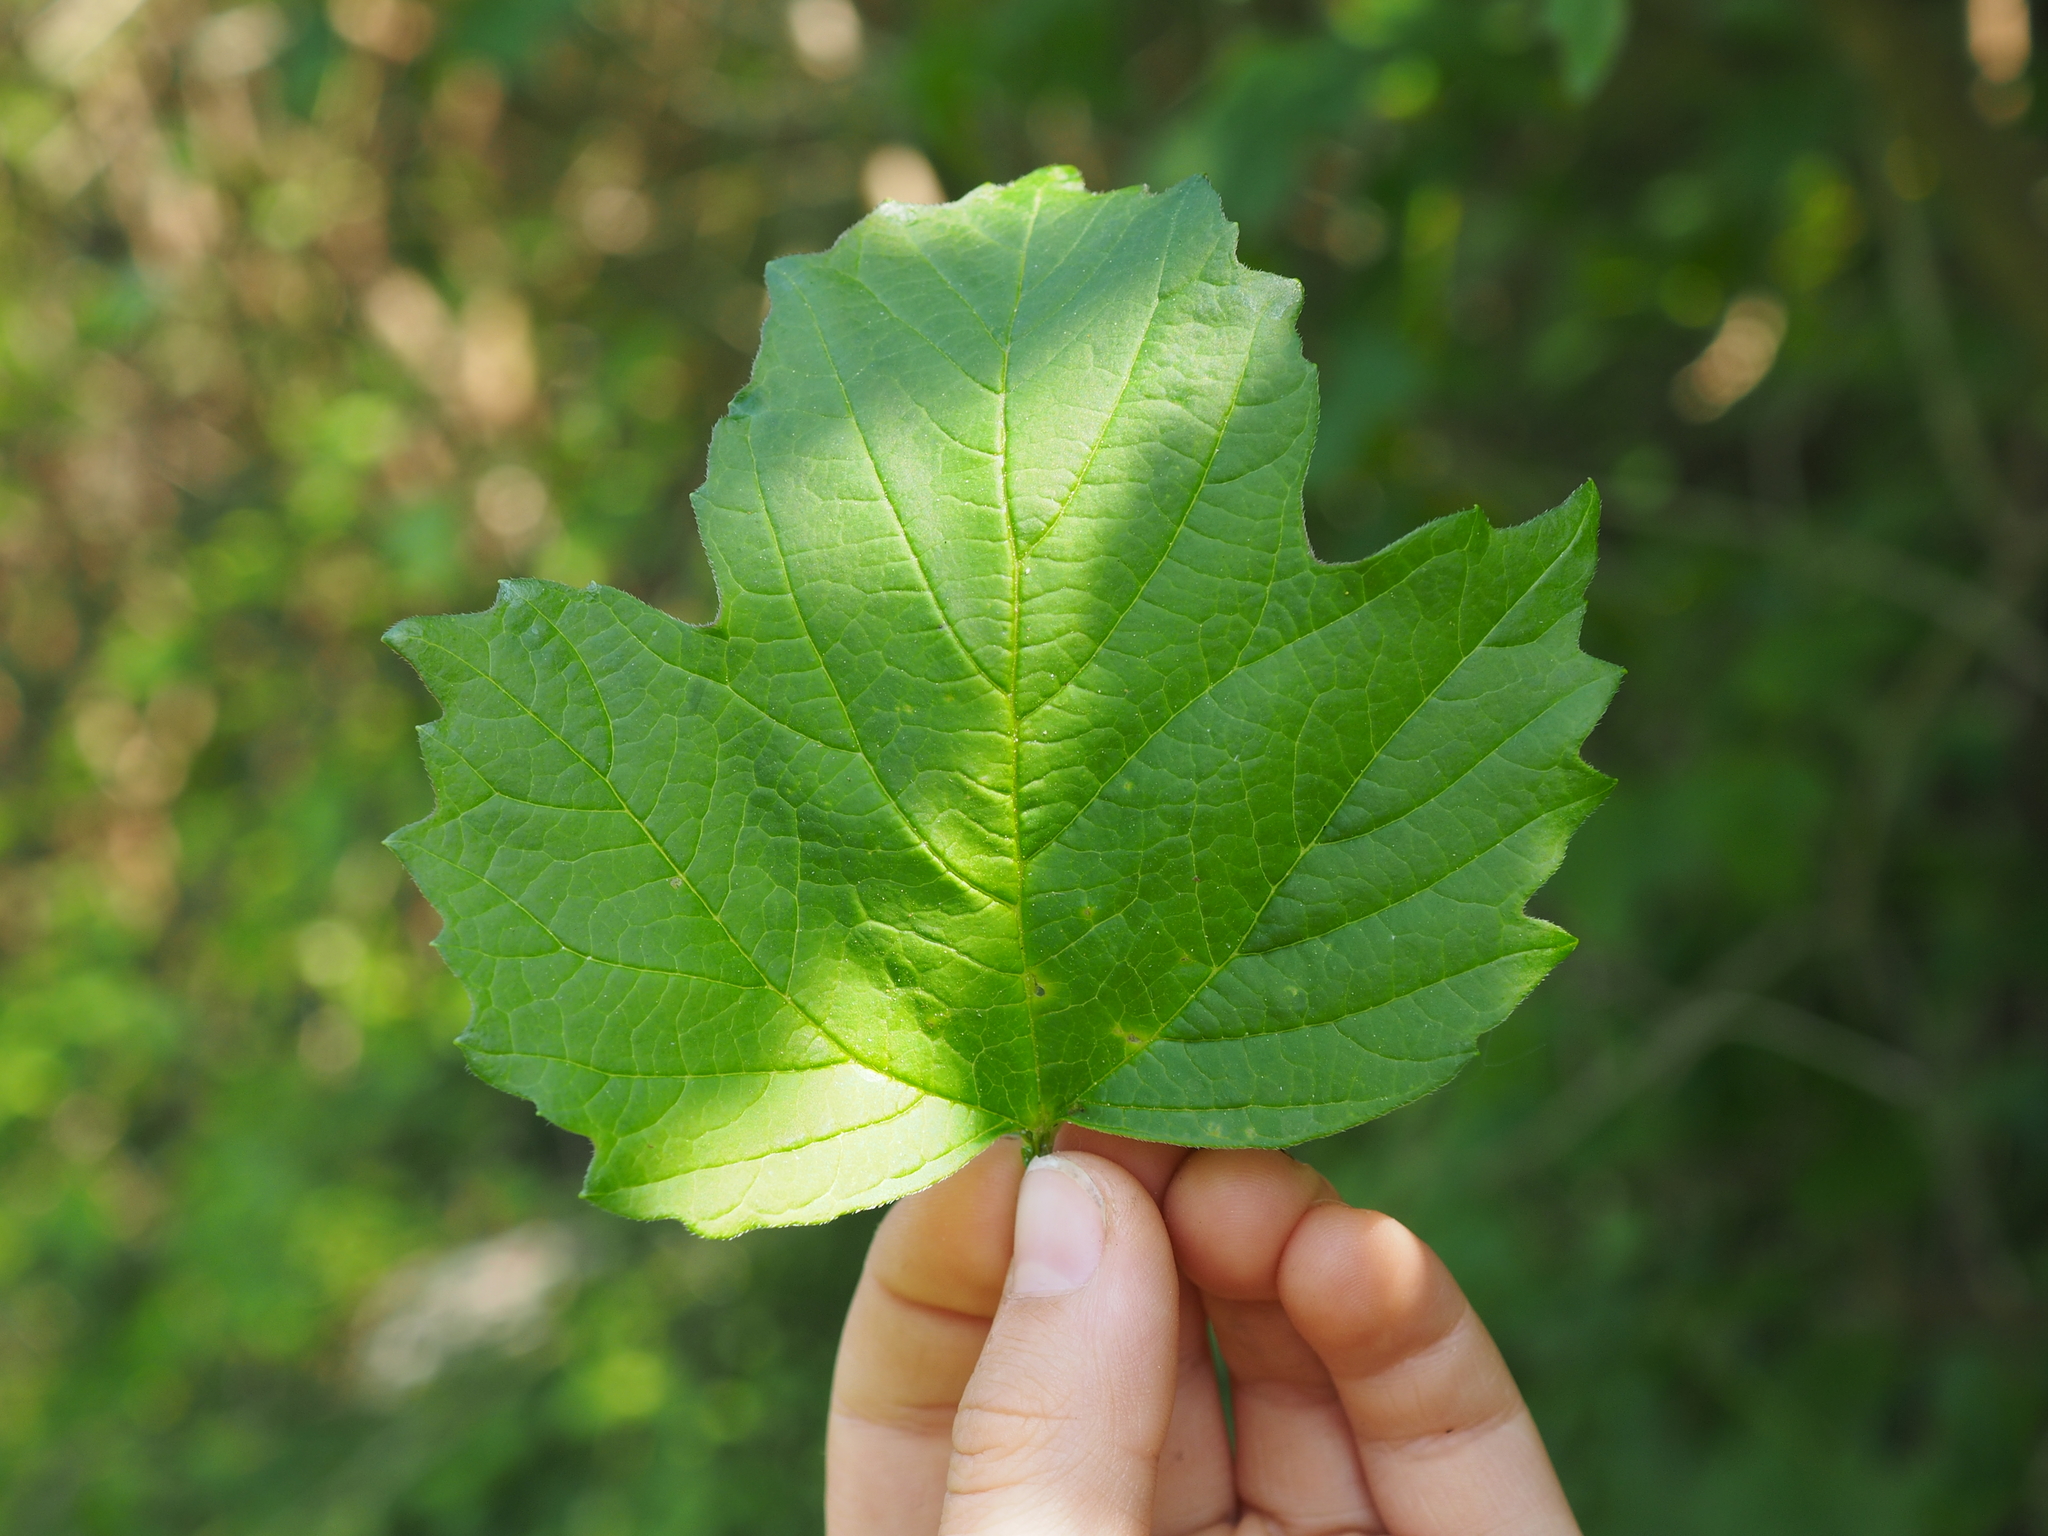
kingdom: Plantae
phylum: Tracheophyta
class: Magnoliopsida
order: Dipsacales
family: Viburnaceae
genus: Viburnum
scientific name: Viburnum opulus
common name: Guelder-rose
